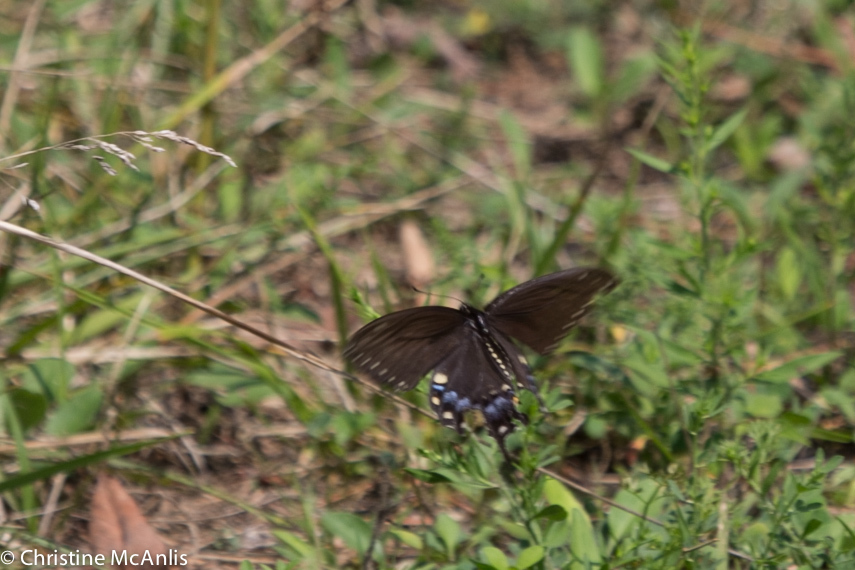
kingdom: Animalia
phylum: Arthropoda
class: Insecta
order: Lepidoptera
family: Papilionidae
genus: Papilio
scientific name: Papilio polyxenes
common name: Black swallowtail
